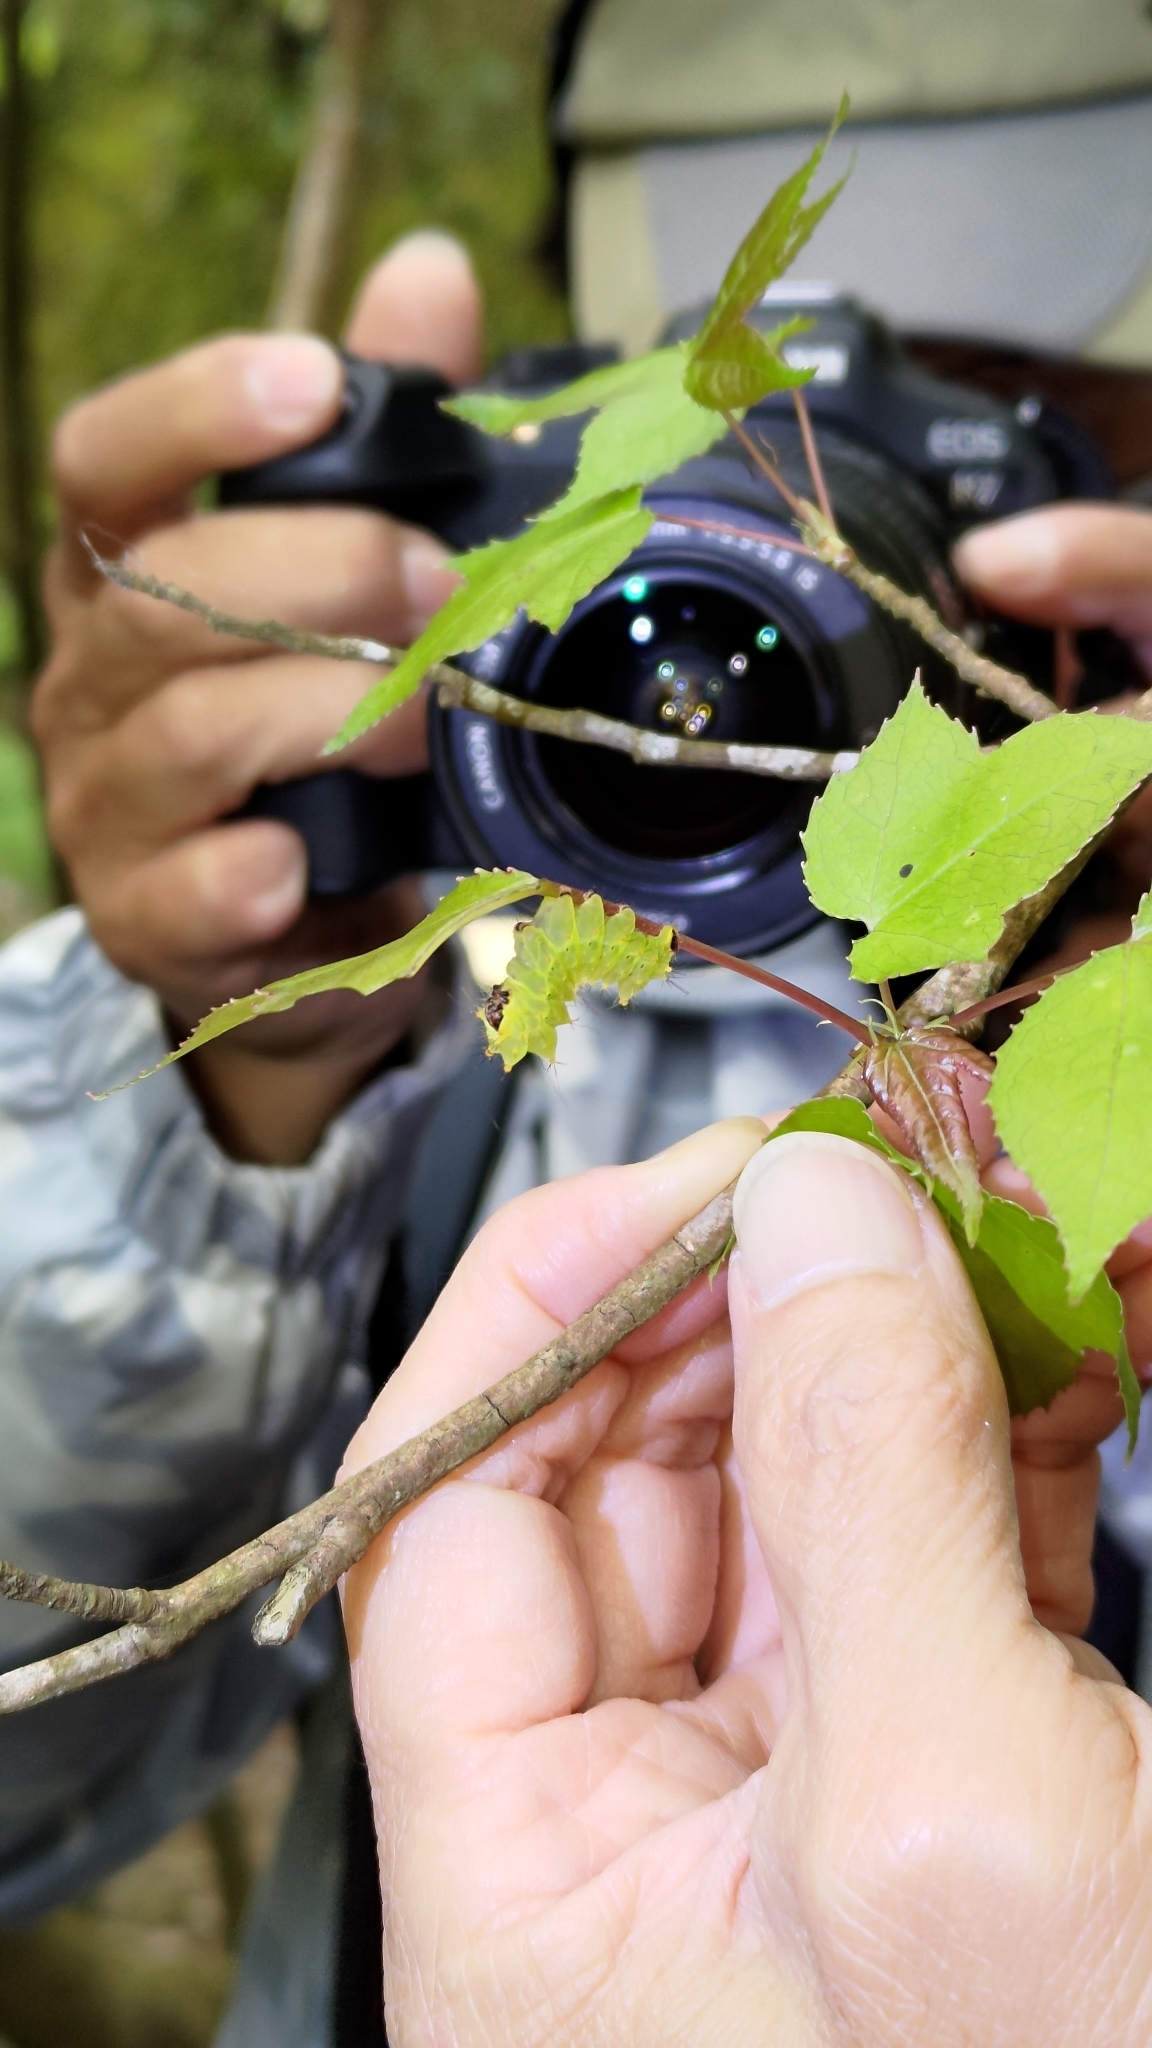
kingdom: Animalia
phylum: Arthropoda
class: Insecta
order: Lepidoptera
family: Saturniidae
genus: Actias
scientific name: Actias sinensis
